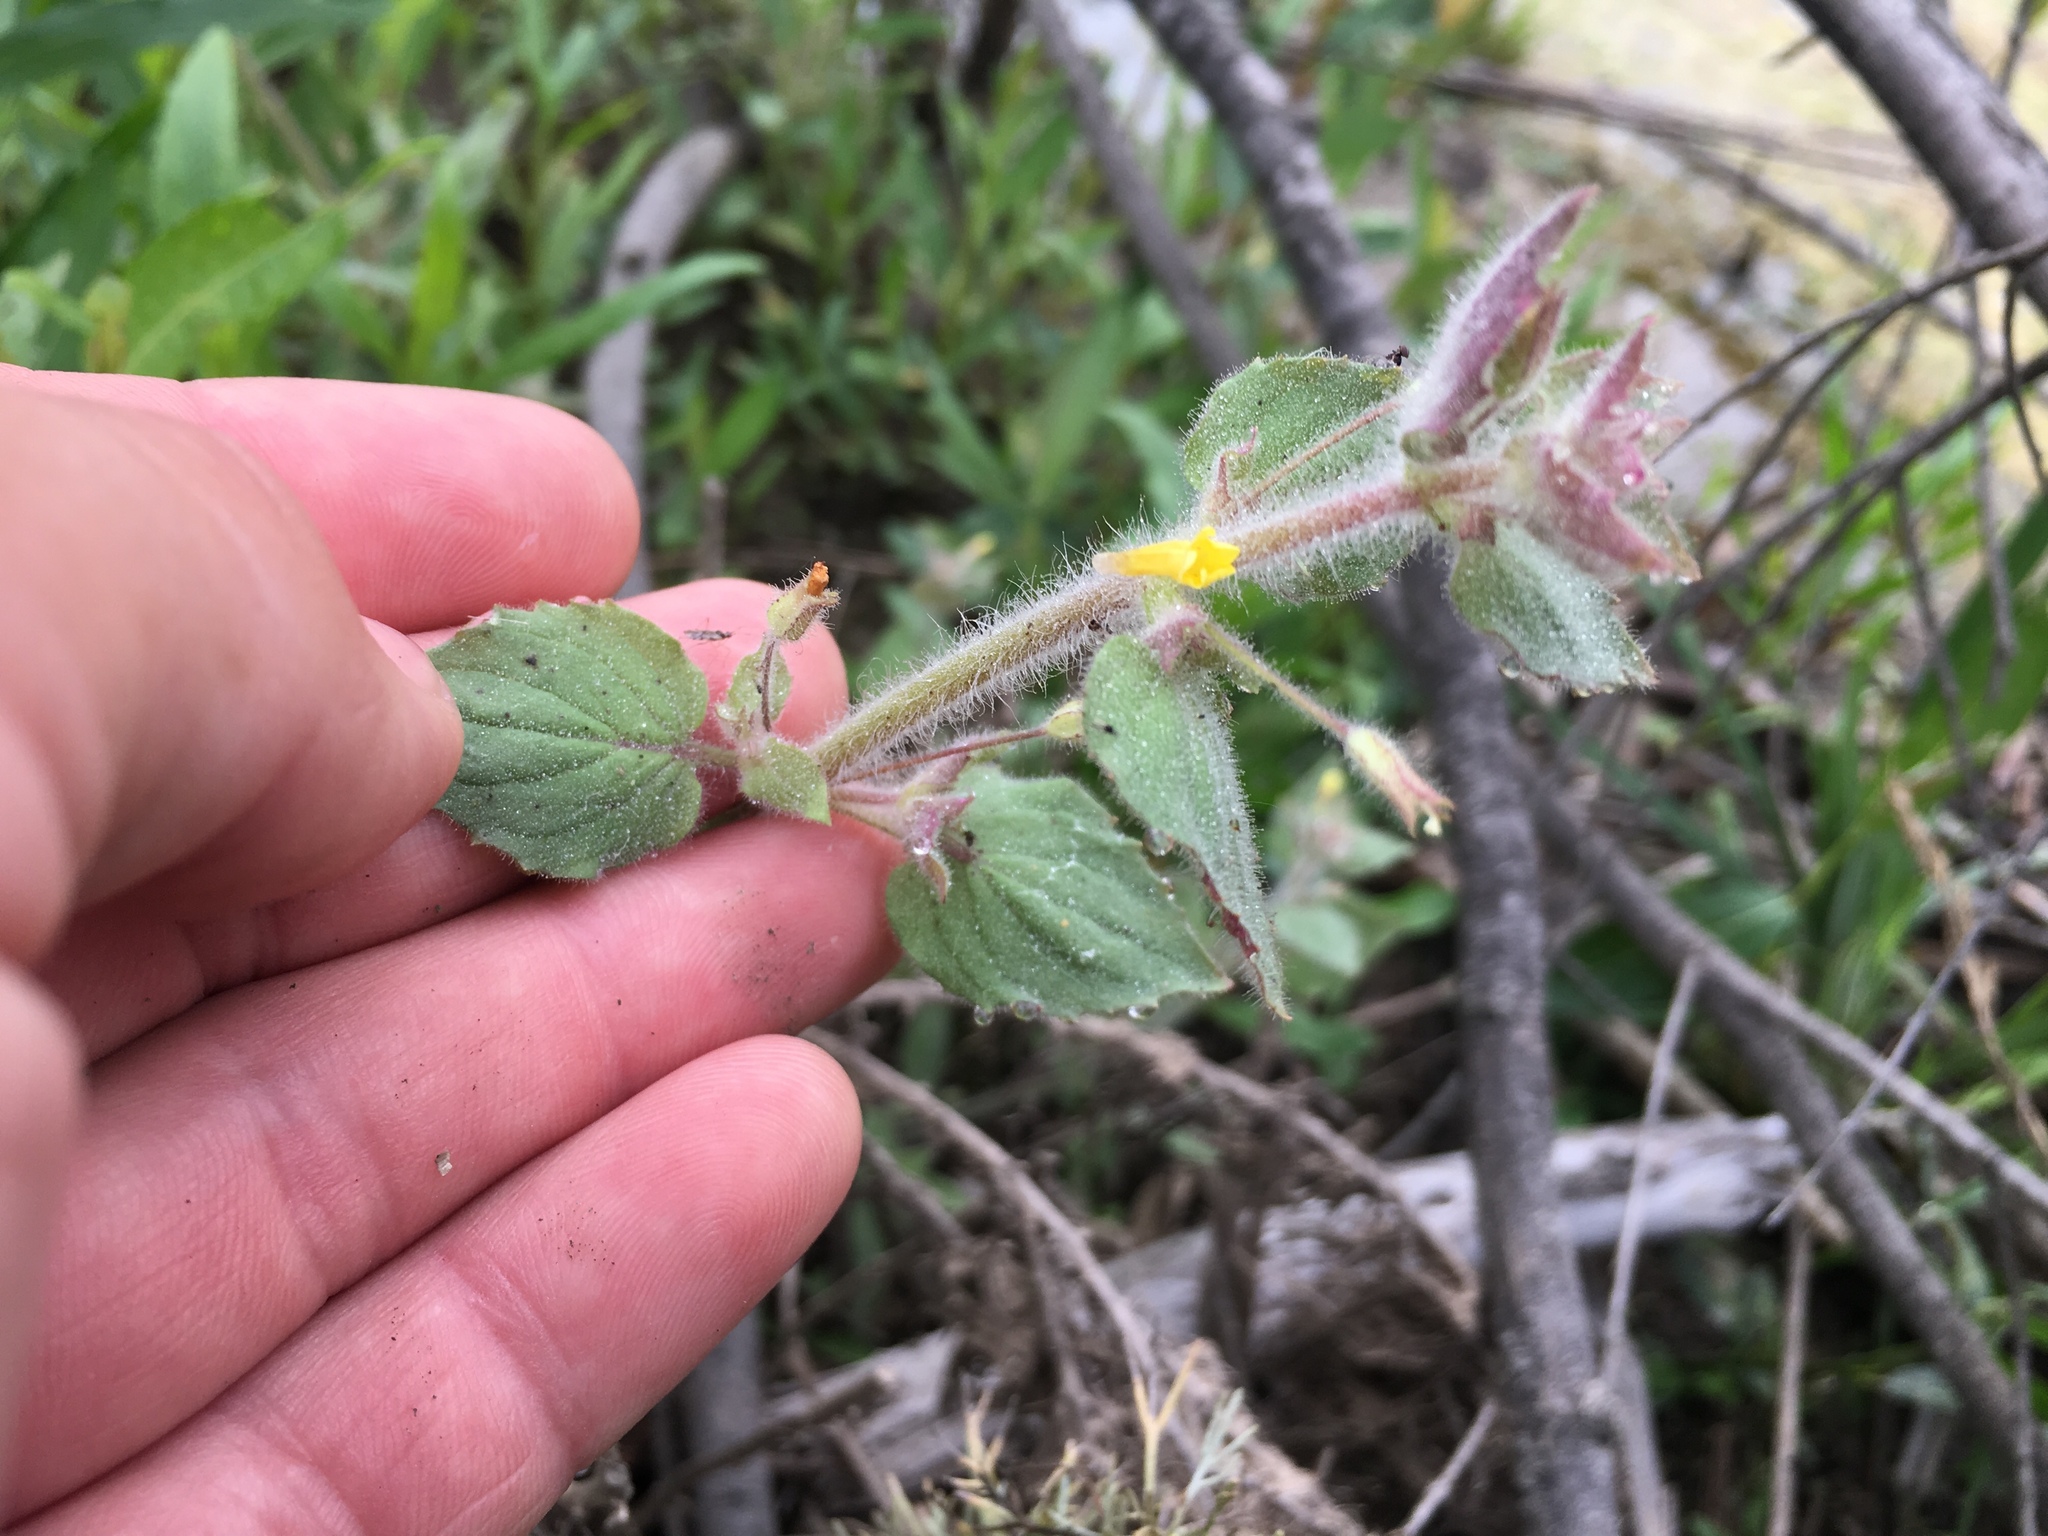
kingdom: Plantae
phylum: Tracheophyta
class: Magnoliopsida
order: Lamiales
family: Phrymaceae
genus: Erythranthe
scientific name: Erythranthe floribunda
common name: Floriferous monkeyflower
